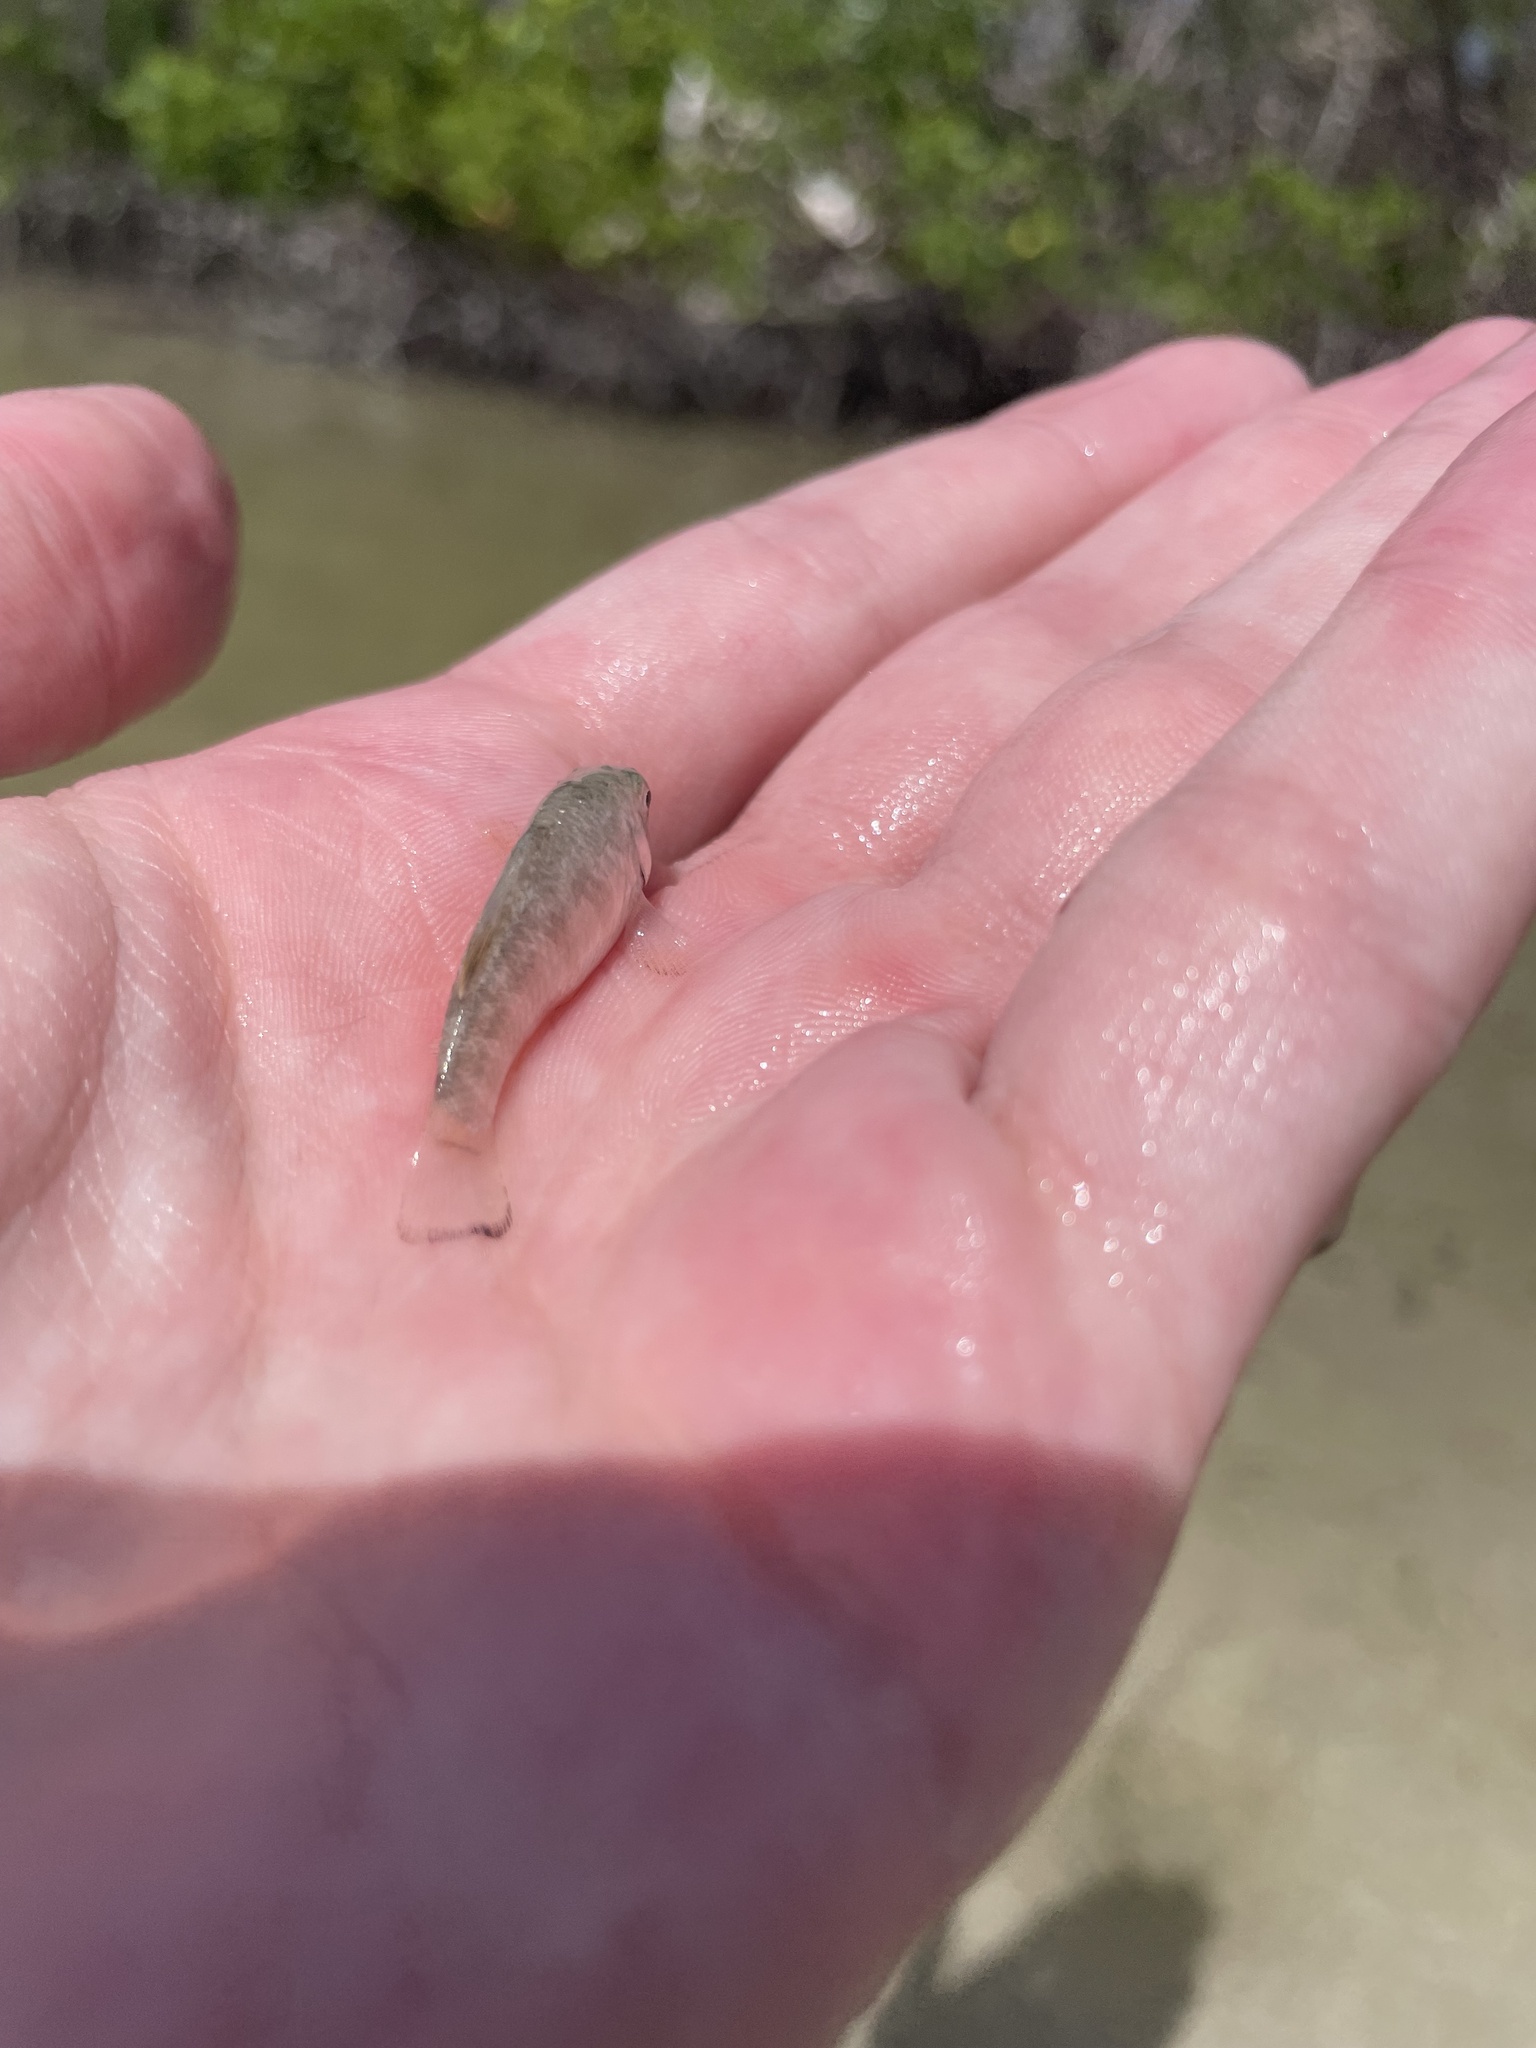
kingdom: Animalia
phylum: Chordata
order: Cyprinodontiformes
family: Cyprinodontidae
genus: Cyprinodon
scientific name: Cyprinodon variegatus
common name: Sheepshead minnow
